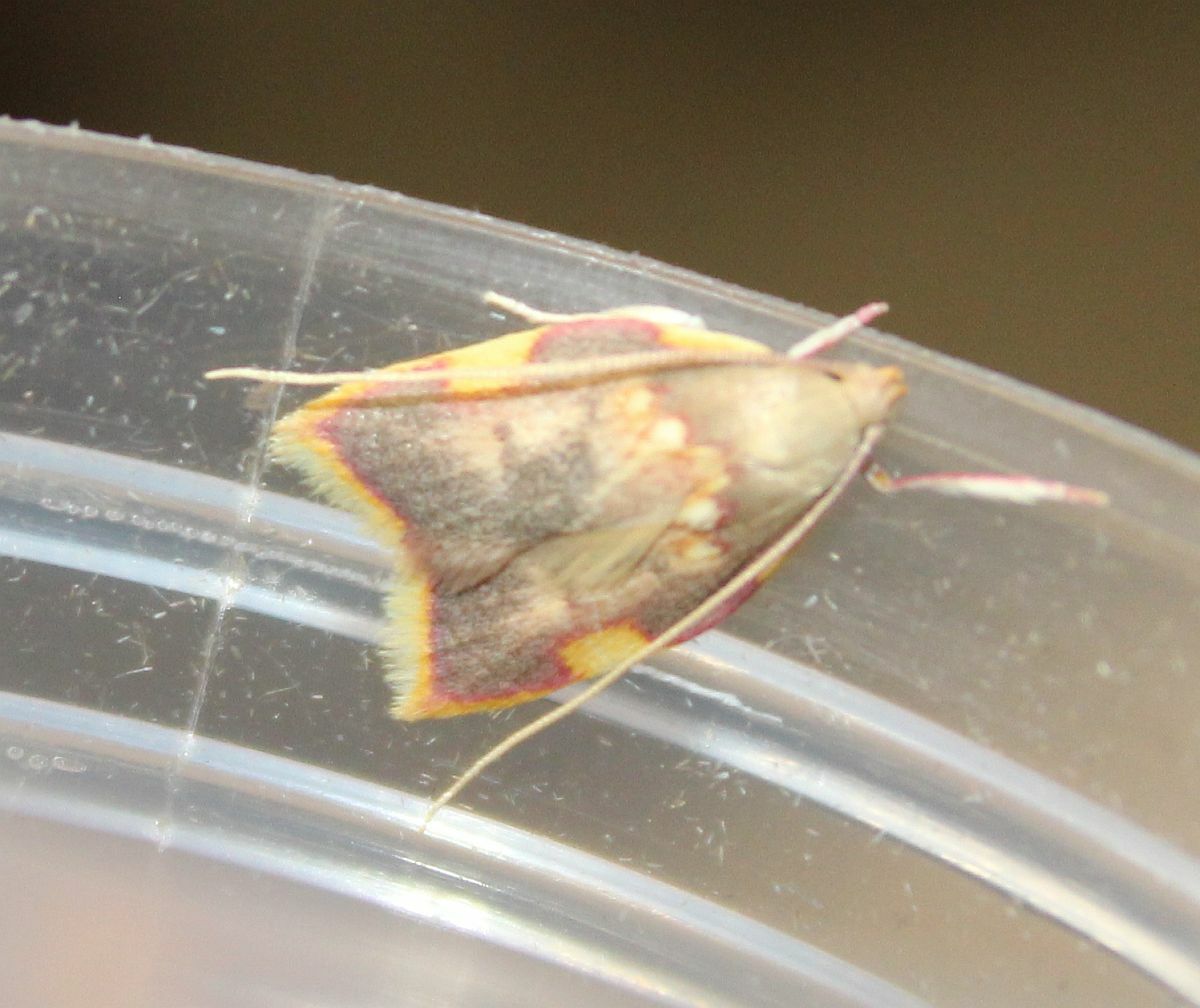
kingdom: Animalia
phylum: Arthropoda
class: Insecta
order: Lepidoptera
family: Peleopodidae
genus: Carcina
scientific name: Carcina quercana
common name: Moth
